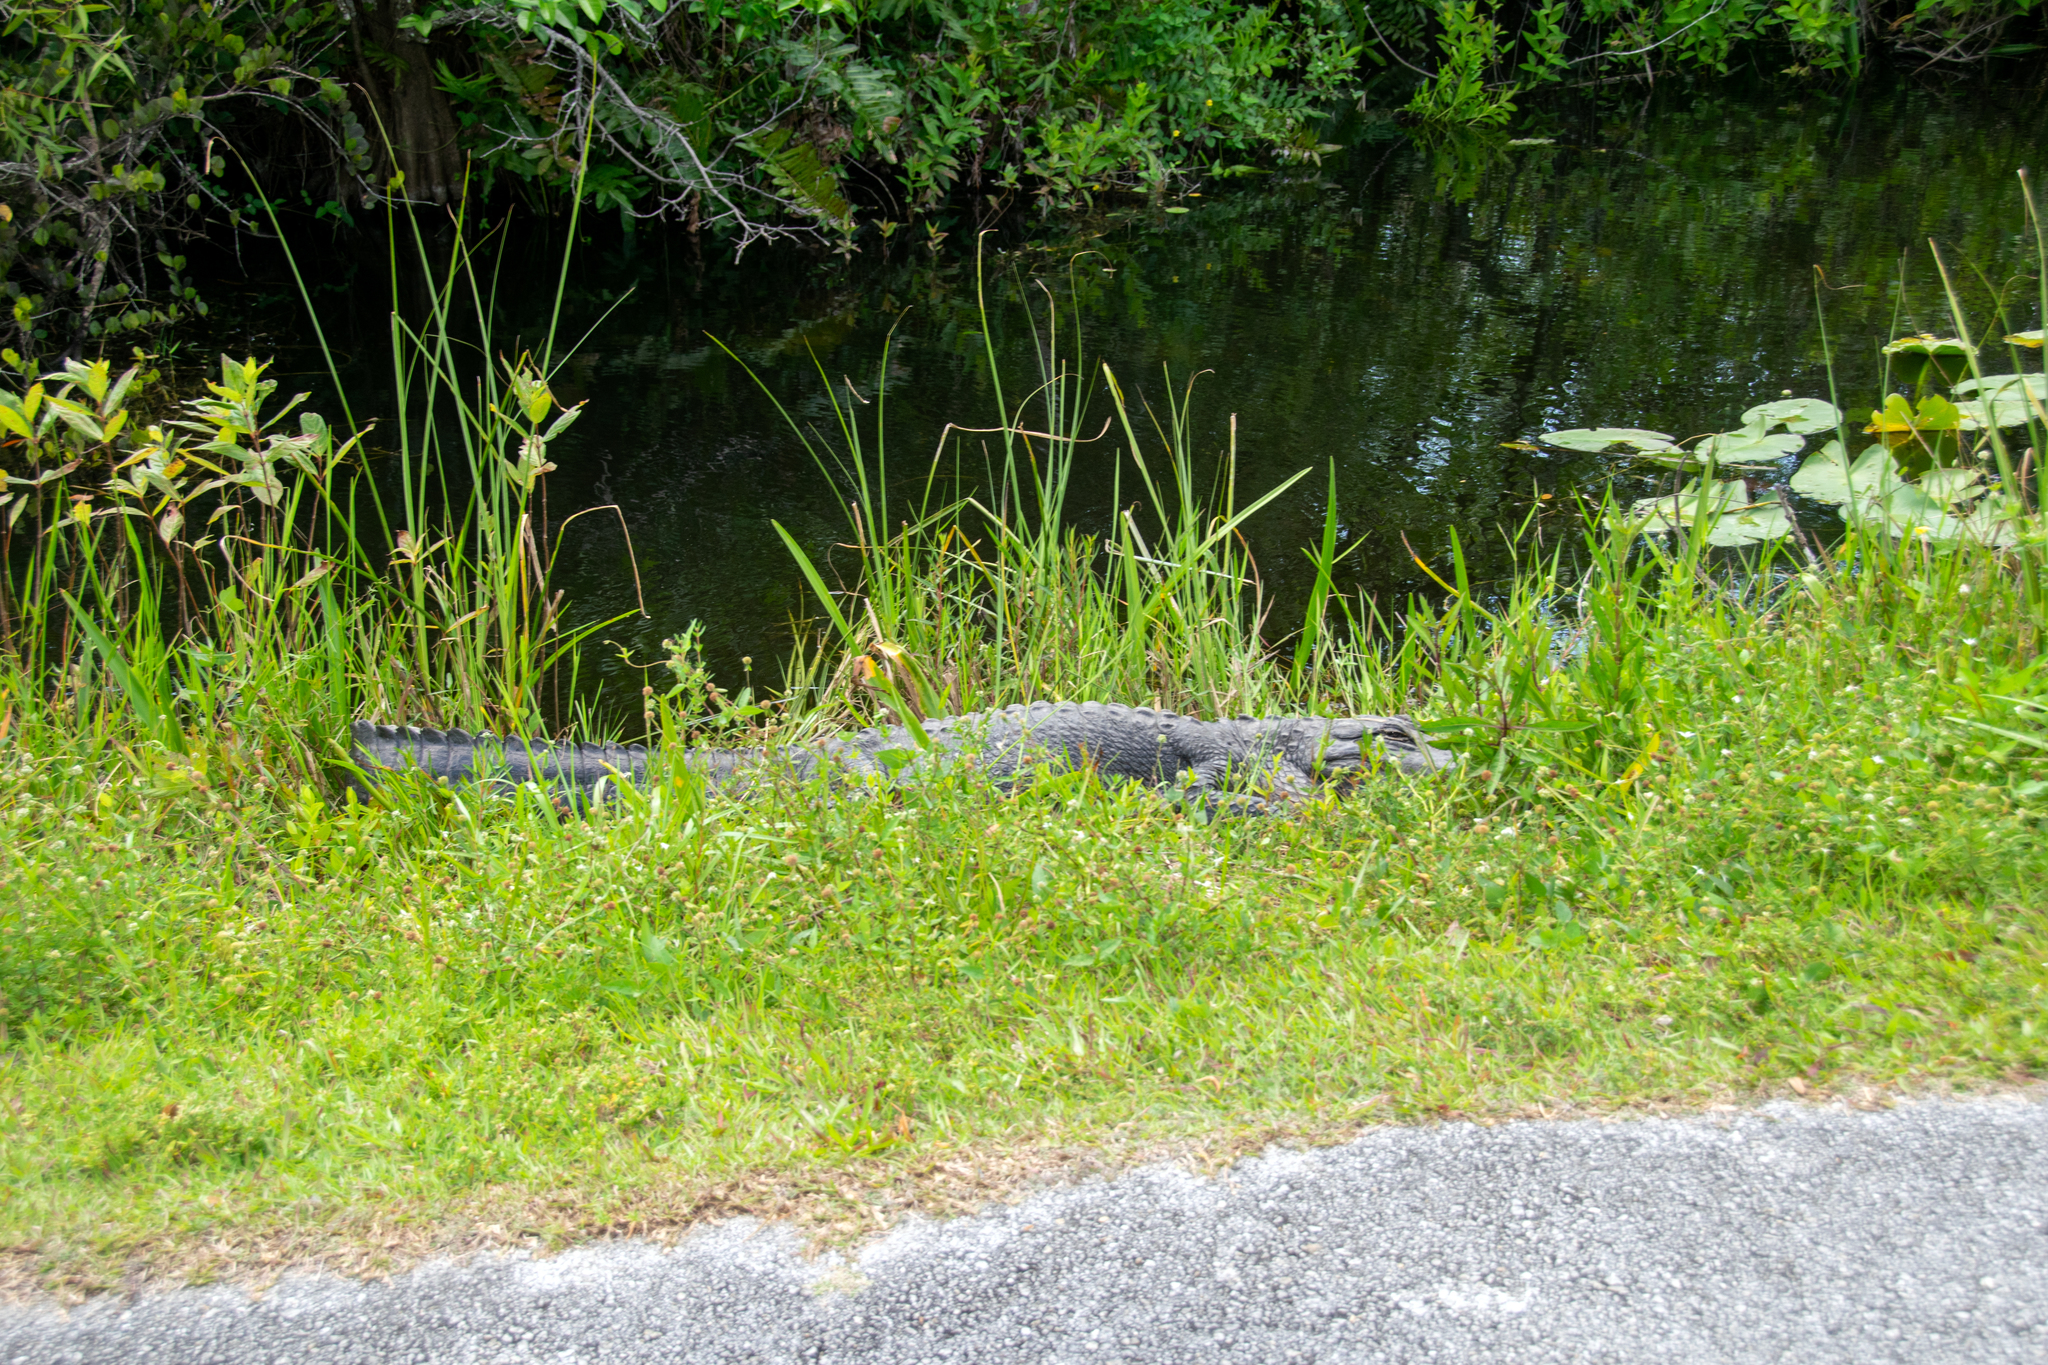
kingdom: Animalia
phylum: Chordata
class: Crocodylia
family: Alligatoridae
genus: Alligator
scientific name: Alligator mississippiensis
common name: American alligator
